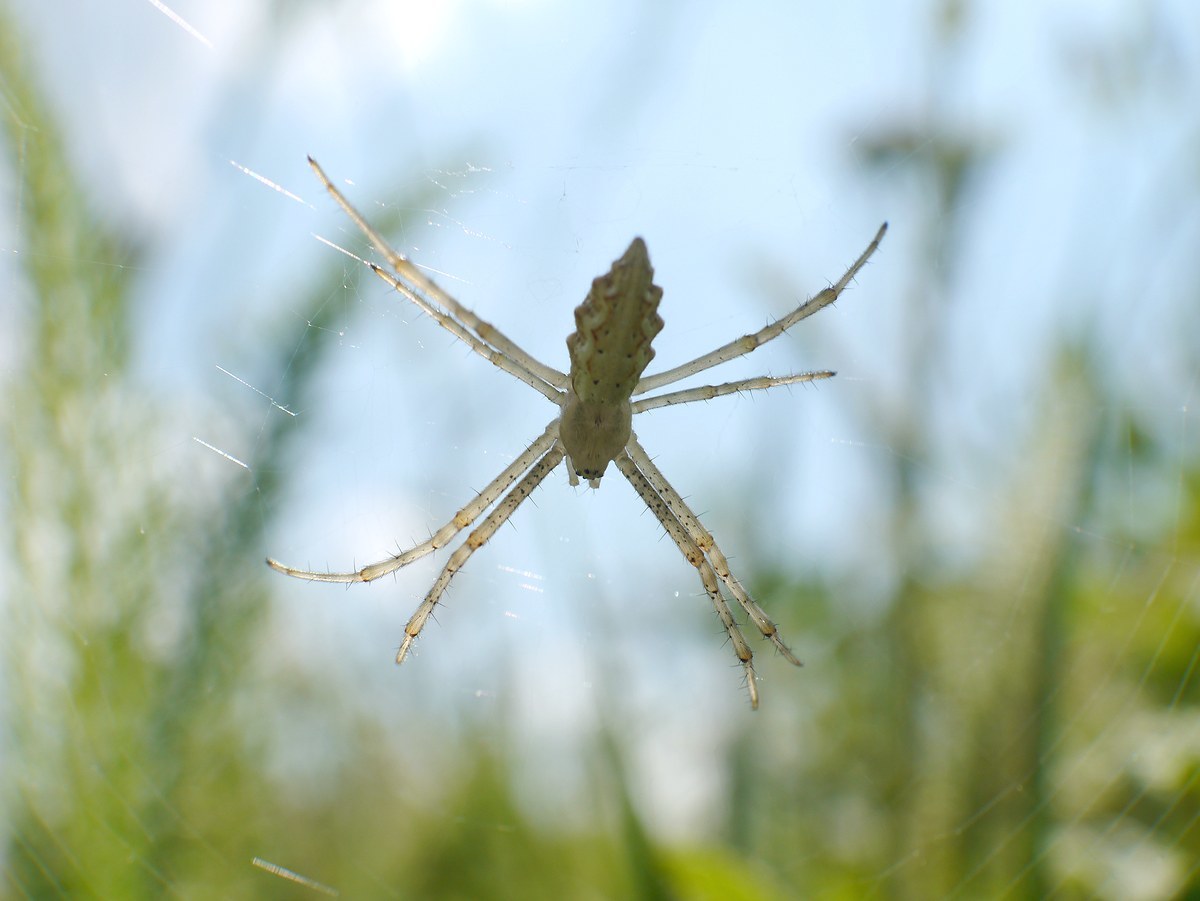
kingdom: Animalia
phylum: Arthropoda
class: Arachnida
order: Araneae
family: Araneidae
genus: Argiope
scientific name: Argiope lobata
